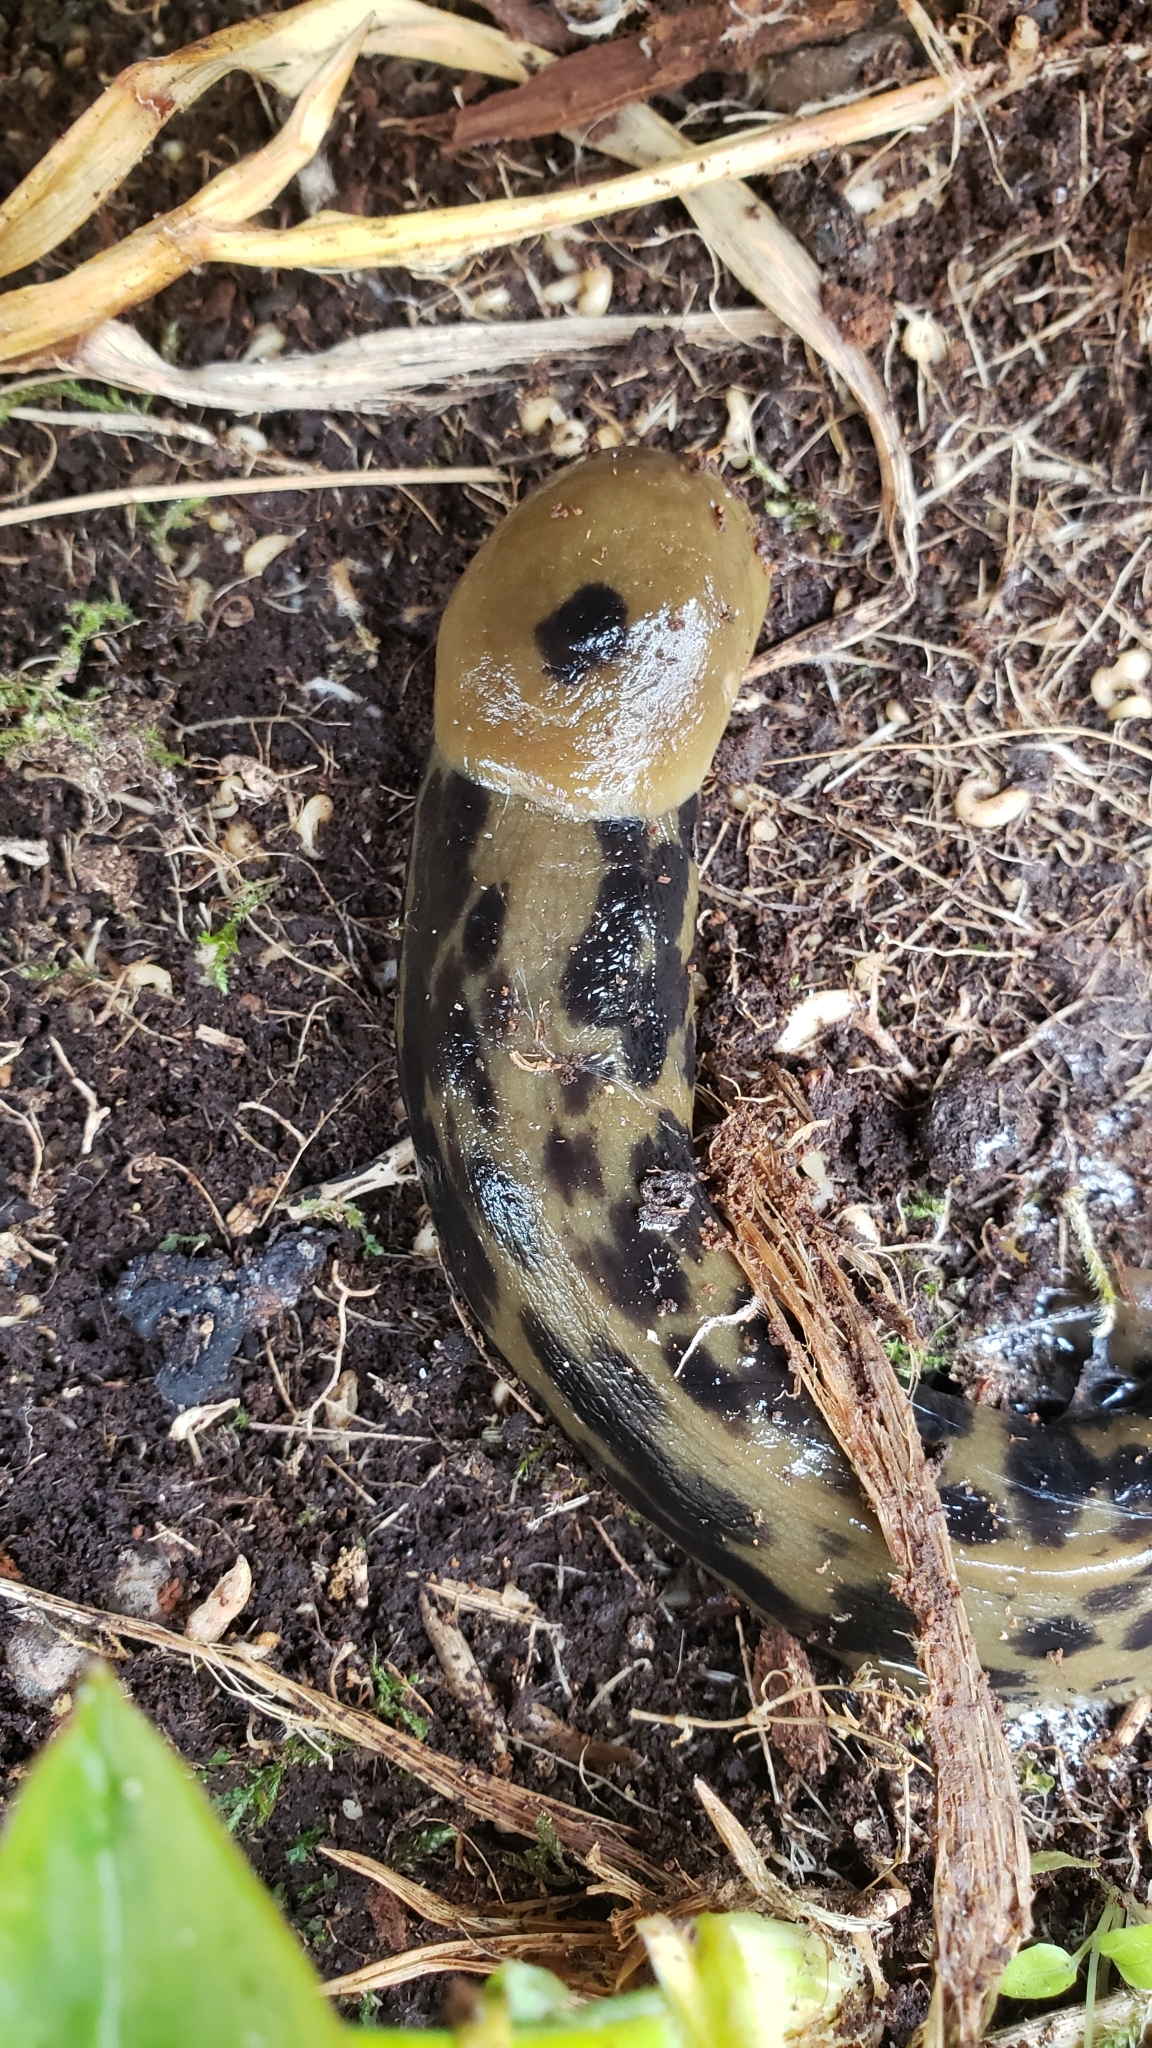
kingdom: Animalia
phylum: Mollusca
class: Gastropoda
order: Stylommatophora
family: Ariolimacidae
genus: Ariolimax
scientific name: Ariolimax columbianus
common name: Pacific banana slug
